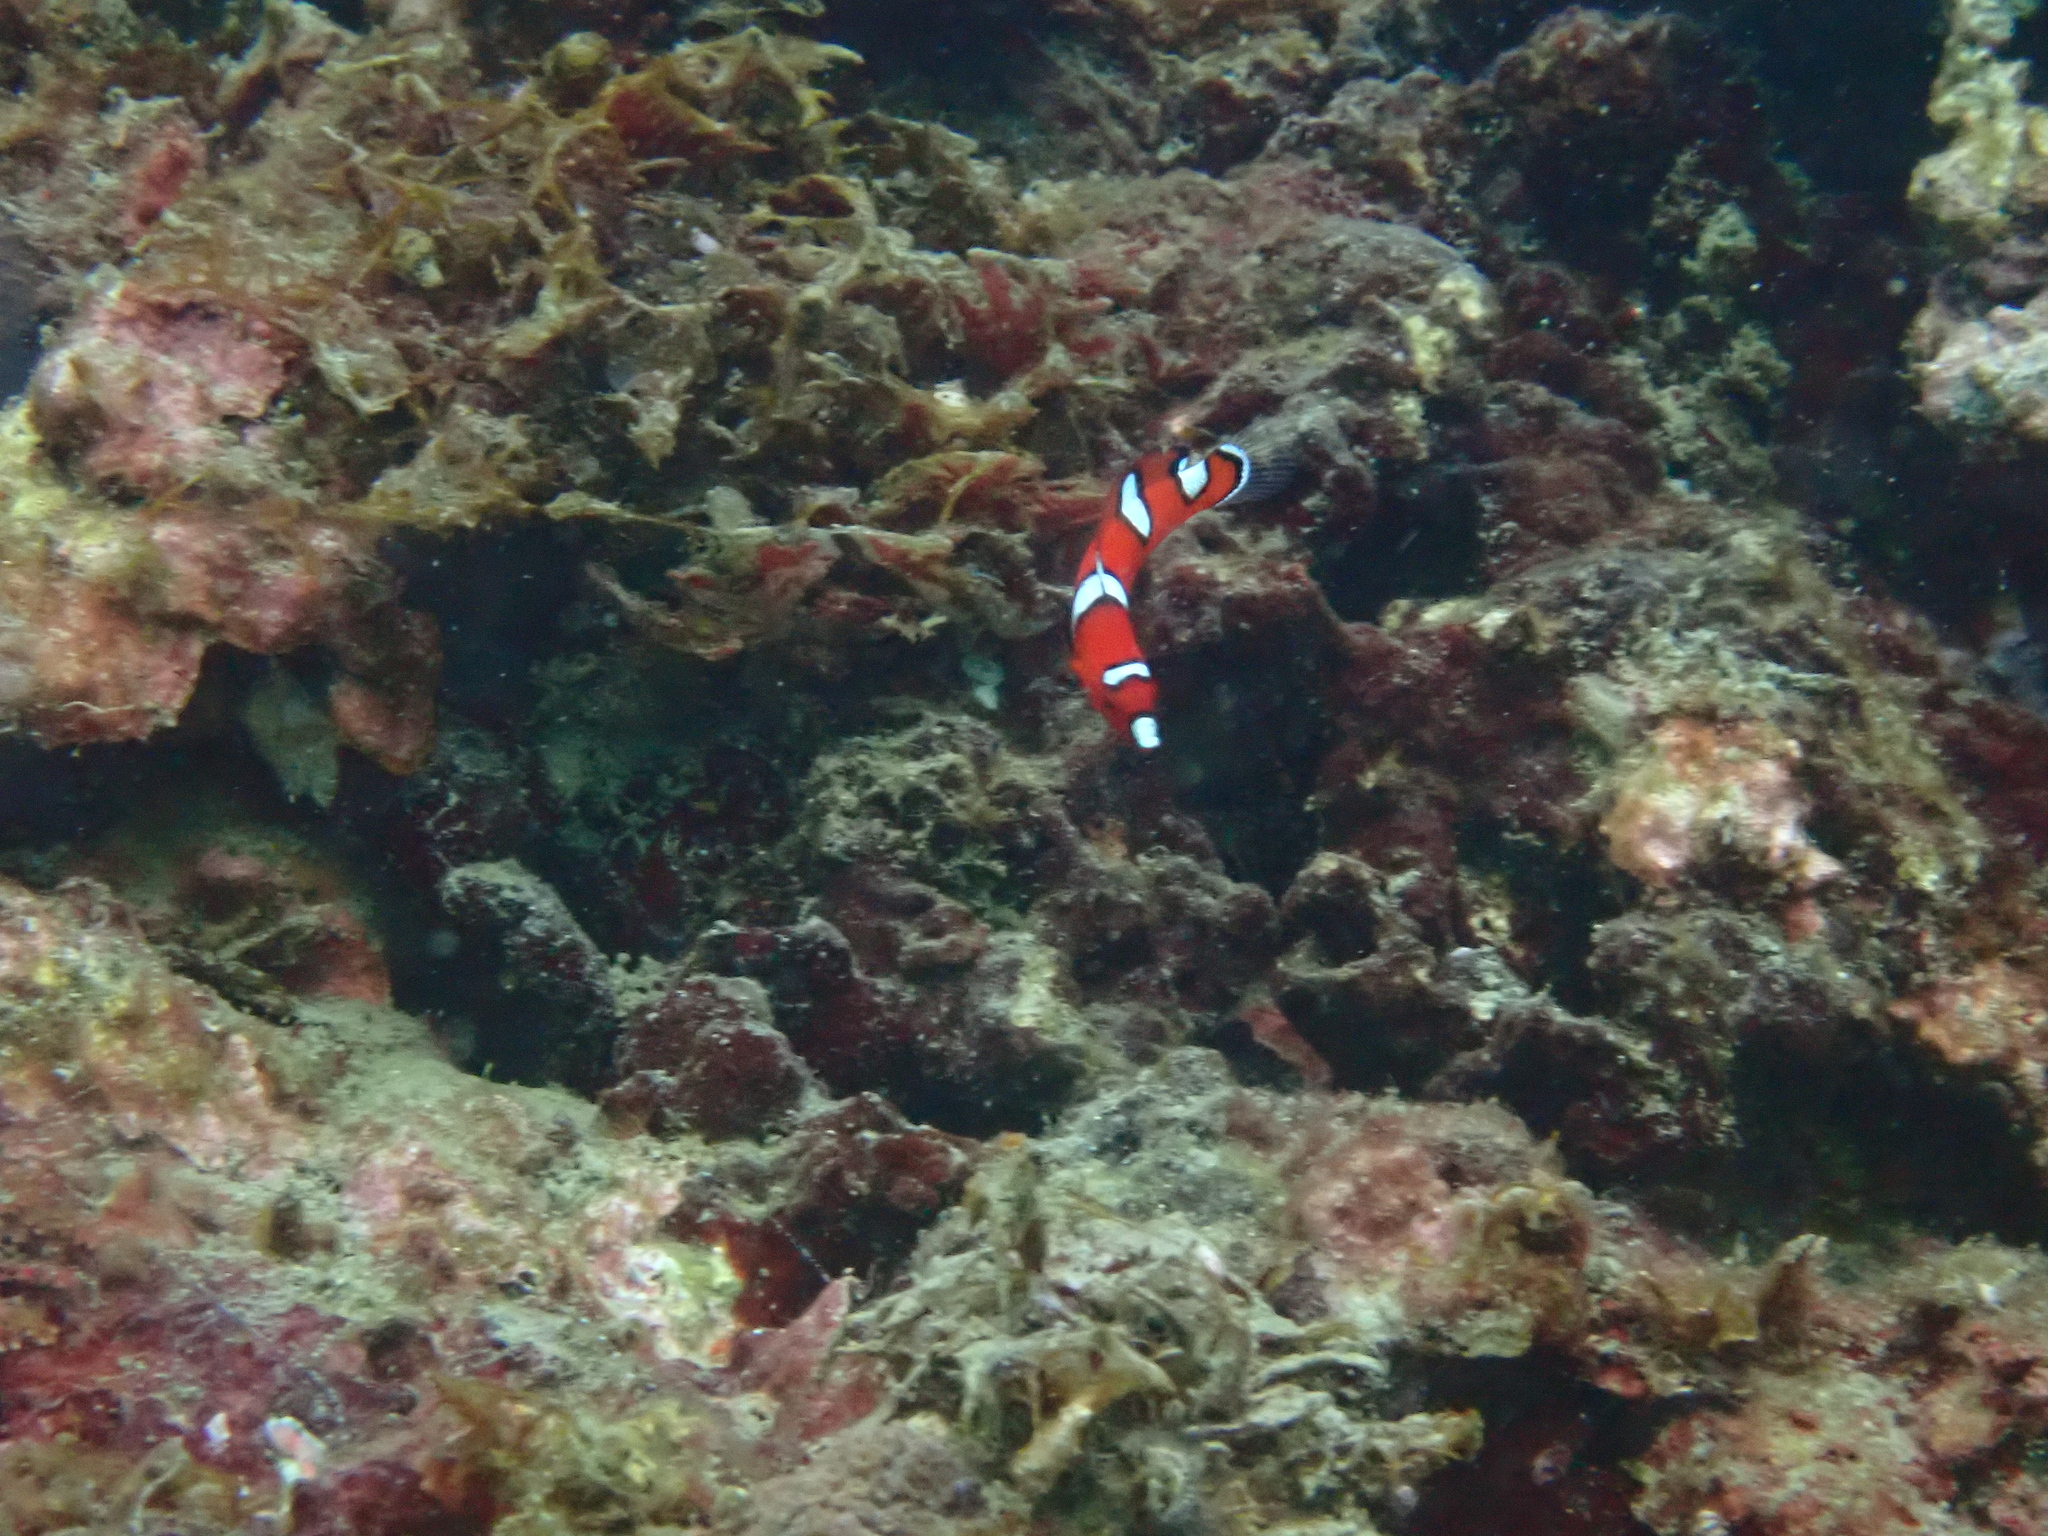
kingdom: Animalia
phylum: Chordata
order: Perciformes
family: Labridae
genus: Coris
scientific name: Coris gaimard
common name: Yellowtail coris
